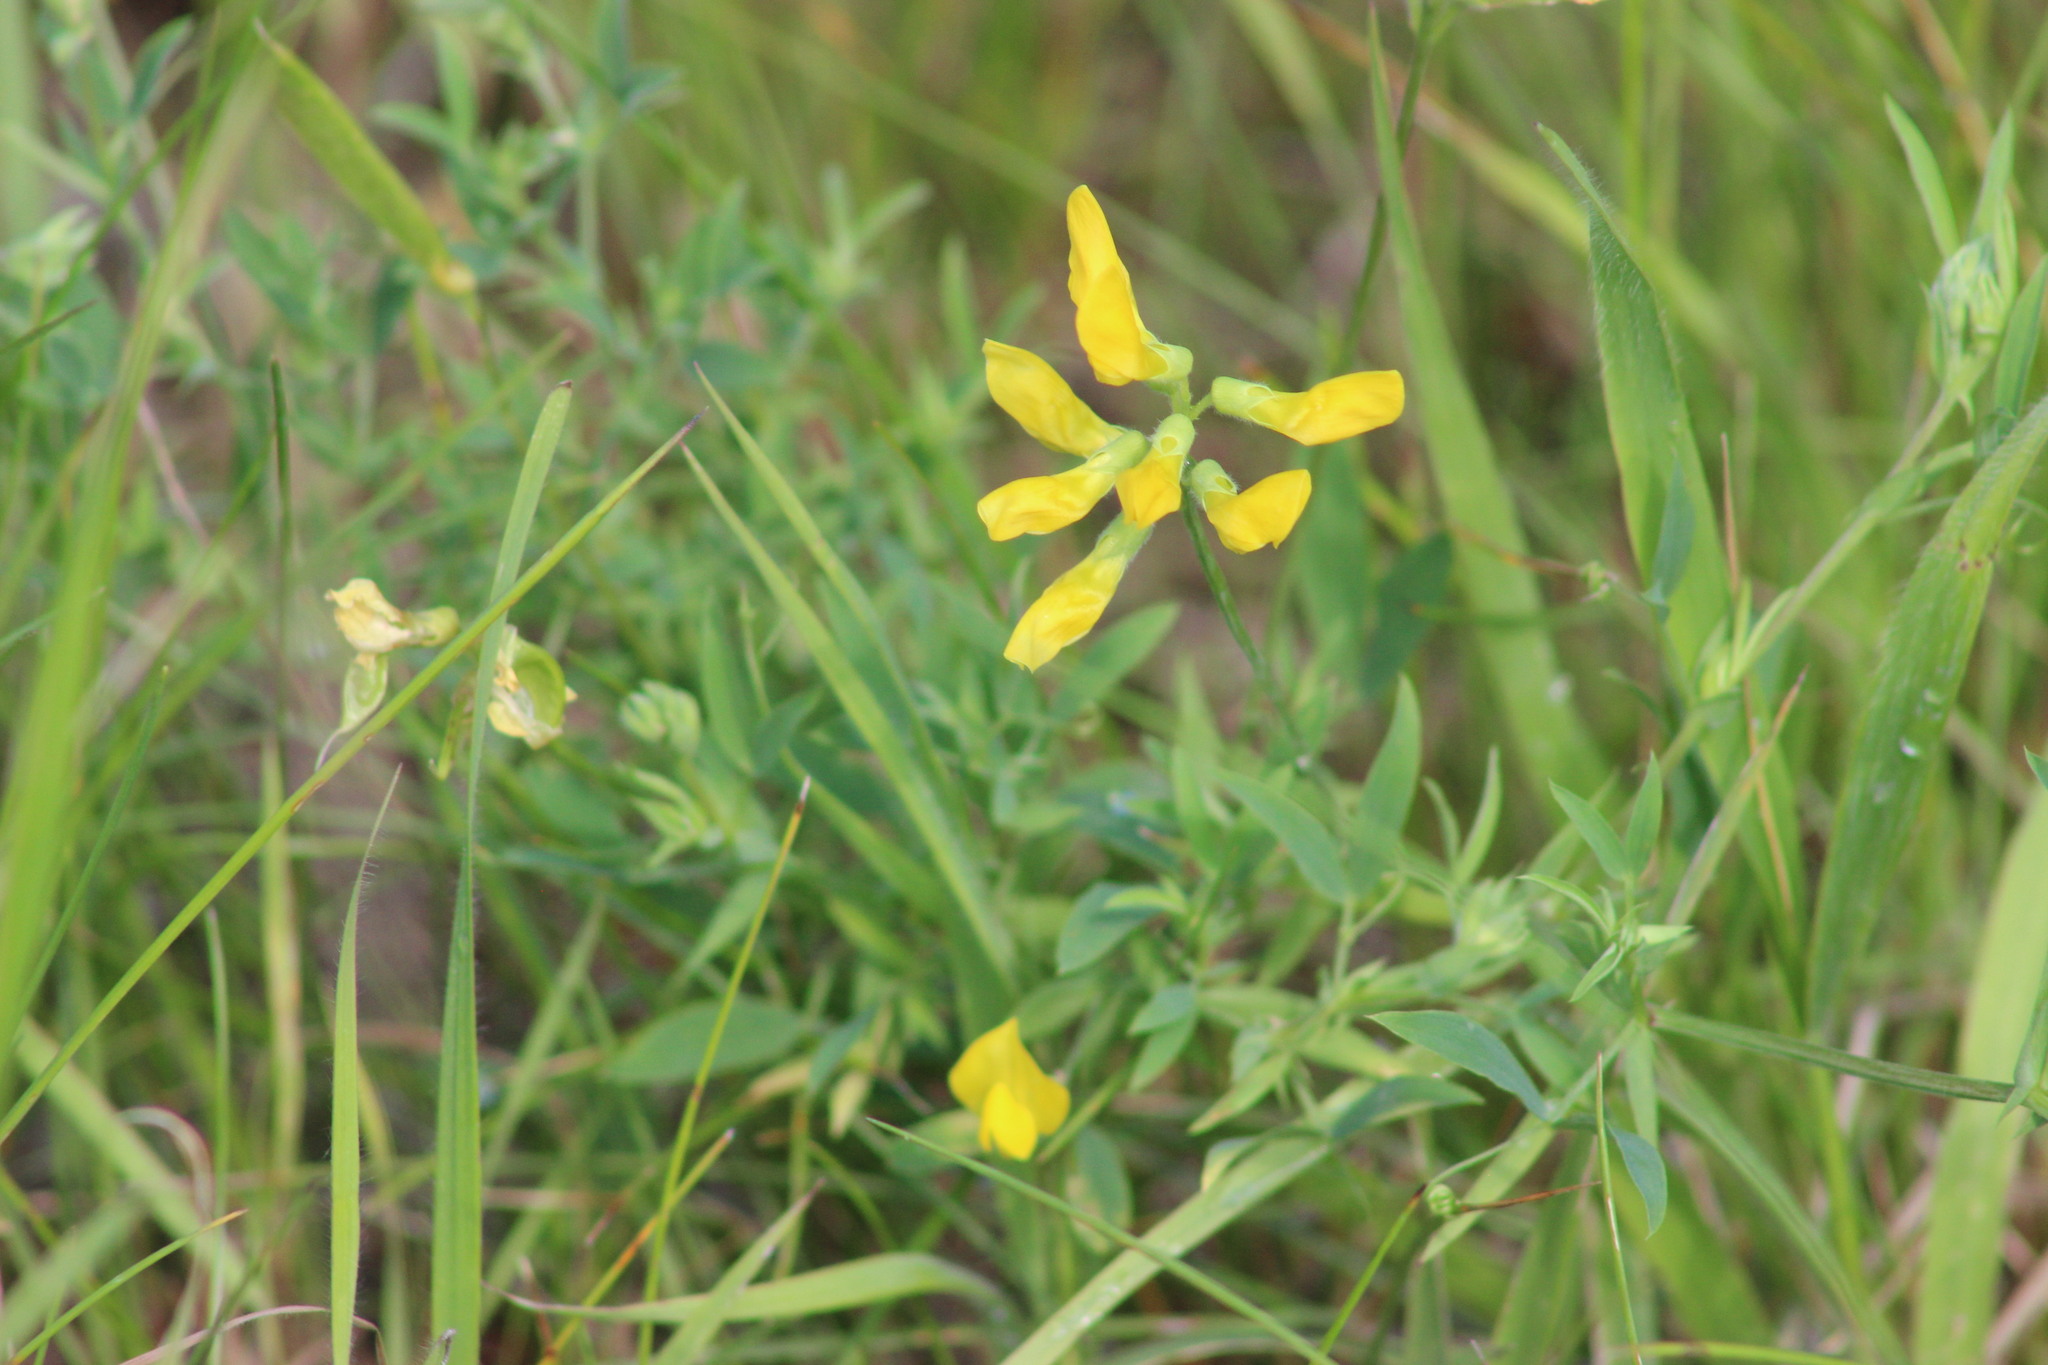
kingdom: Plantae
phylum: Tracheophyta
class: Magnoliopsida
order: Fabales
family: Fabaceae
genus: Lathyrus
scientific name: Lathyrus pratensis
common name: Meadow vetchling
